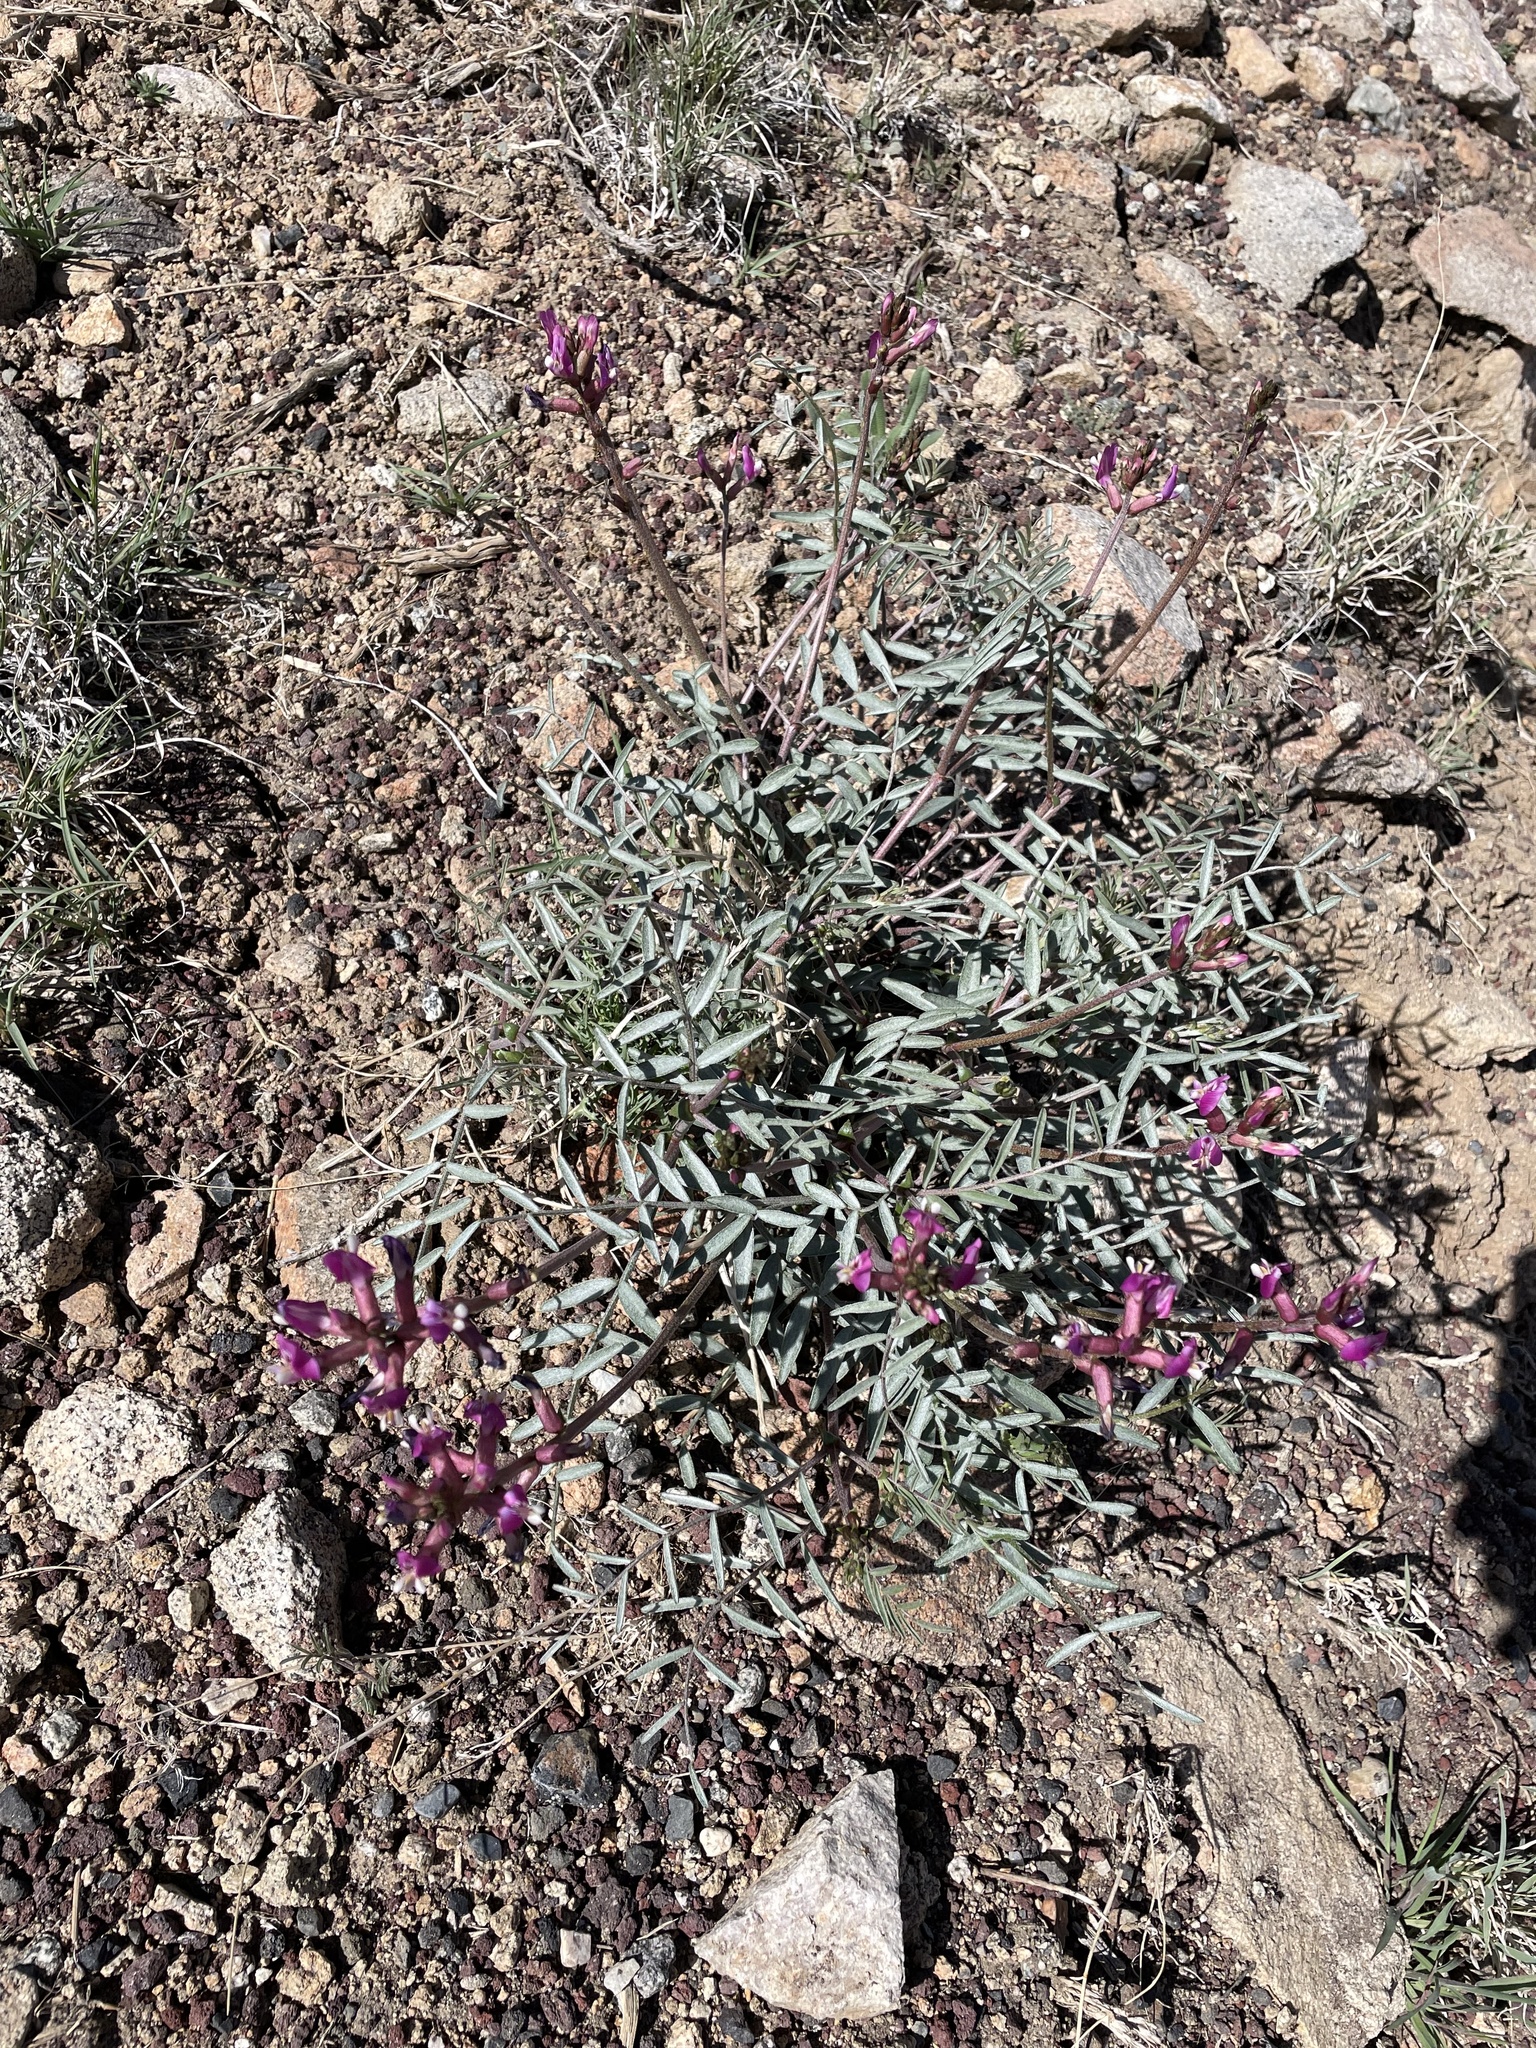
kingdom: Plantae
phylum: Tracheophyta
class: Magnoliopsida
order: Fabales
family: Fabaceae
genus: Astragalus
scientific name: Astragalus casei
